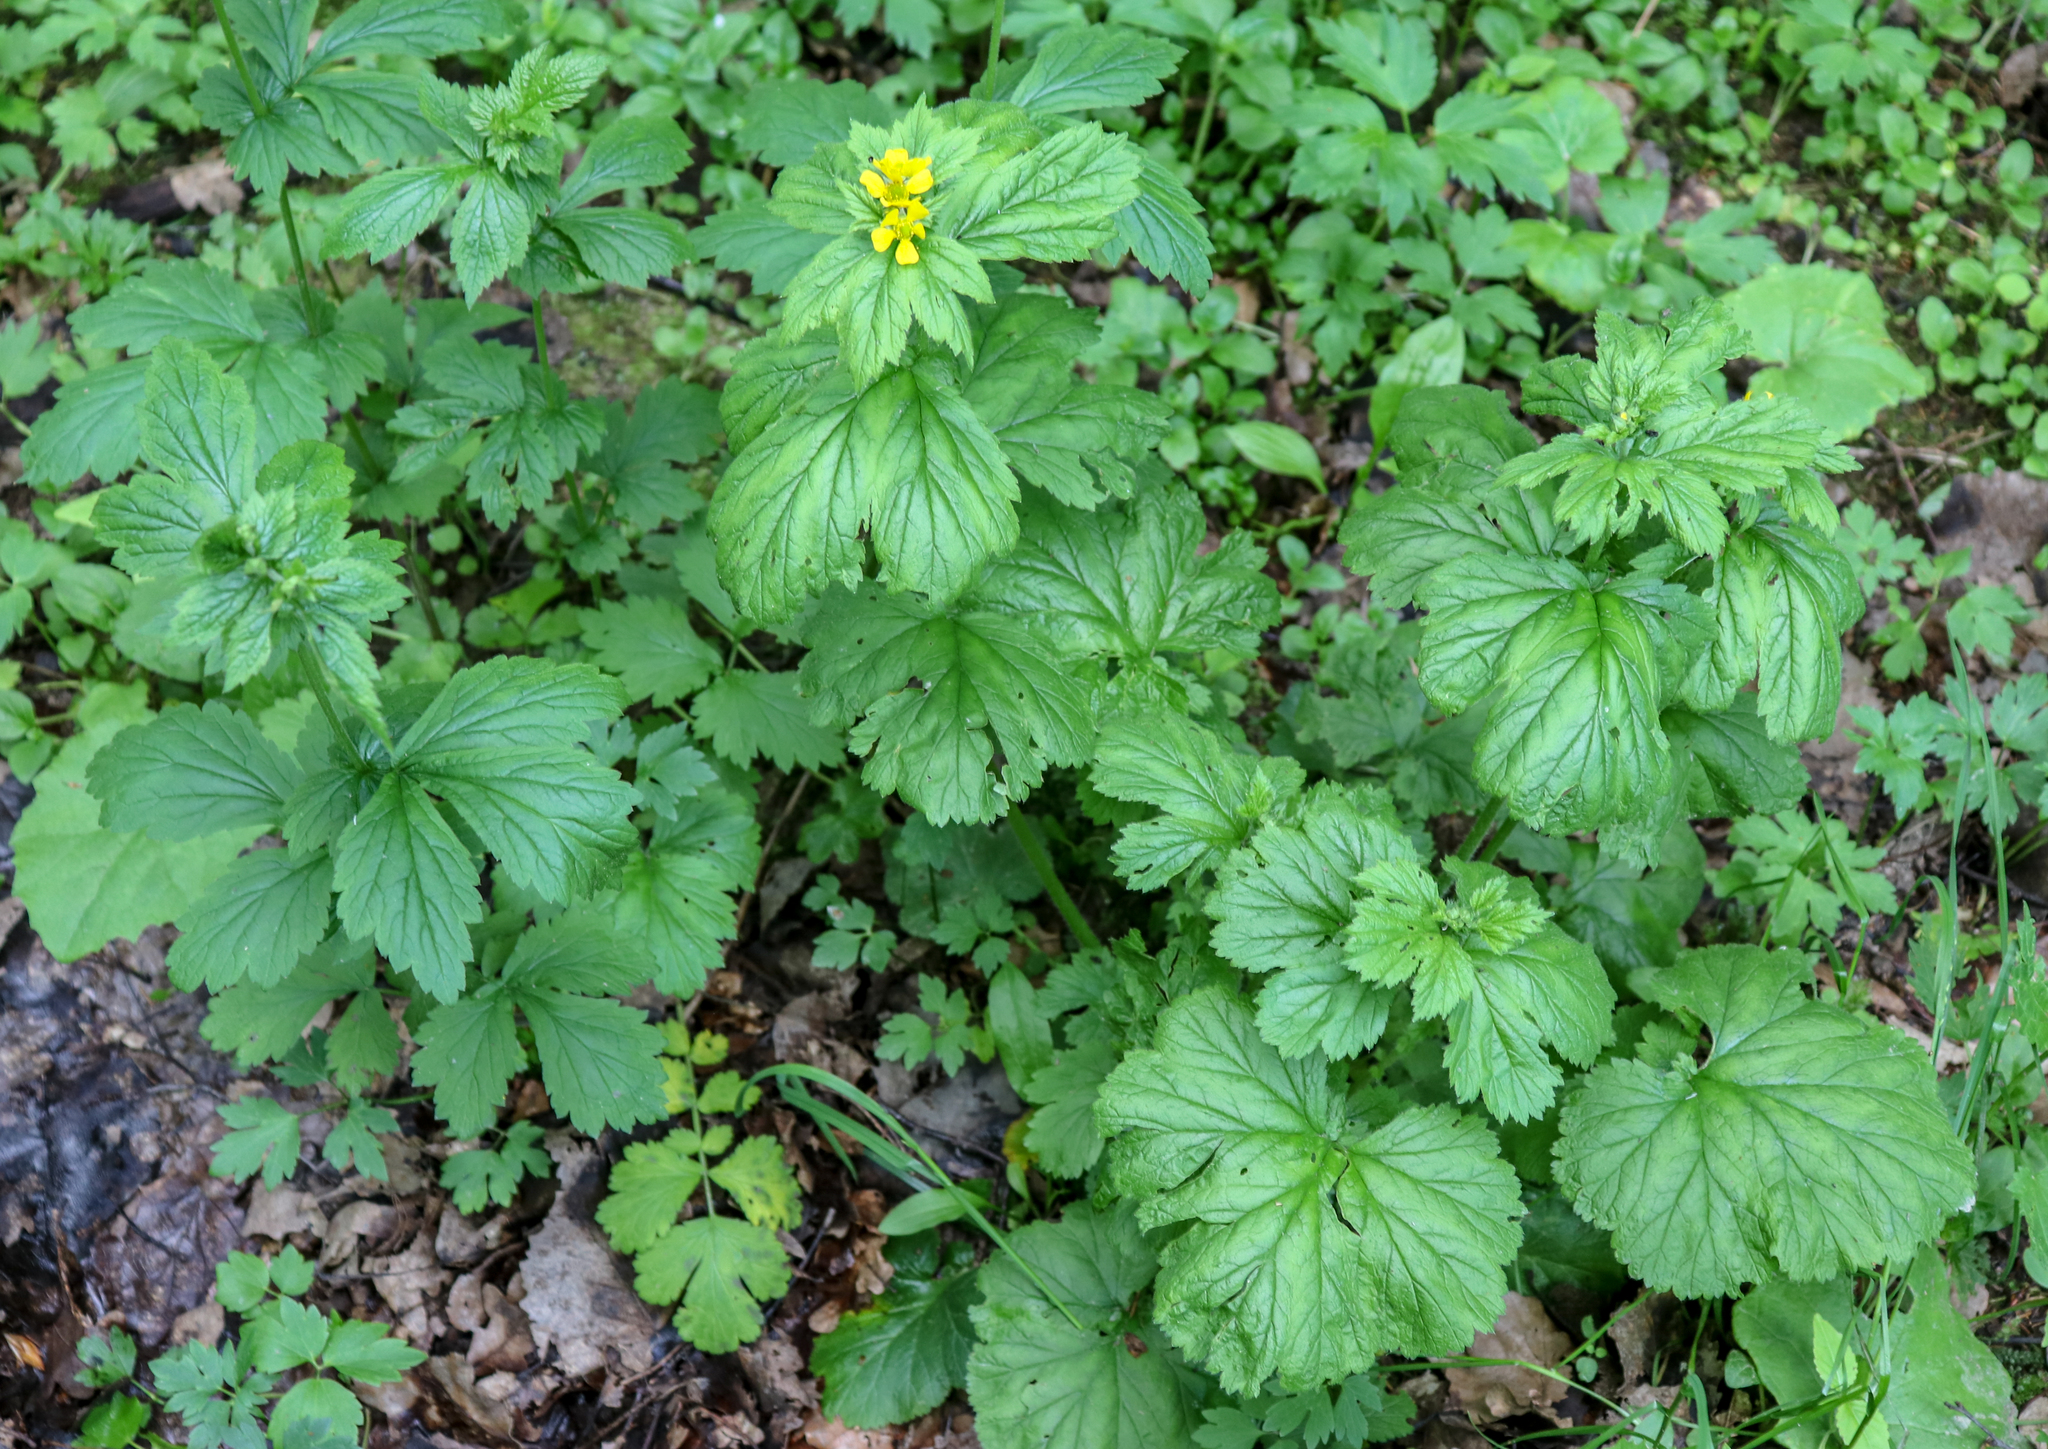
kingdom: Plantae
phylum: Tracheophyta
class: Magnoliopsida
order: Rosales
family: Rosaceae
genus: Geum
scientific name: Geum macrophyllum
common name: Large-leaved avens
